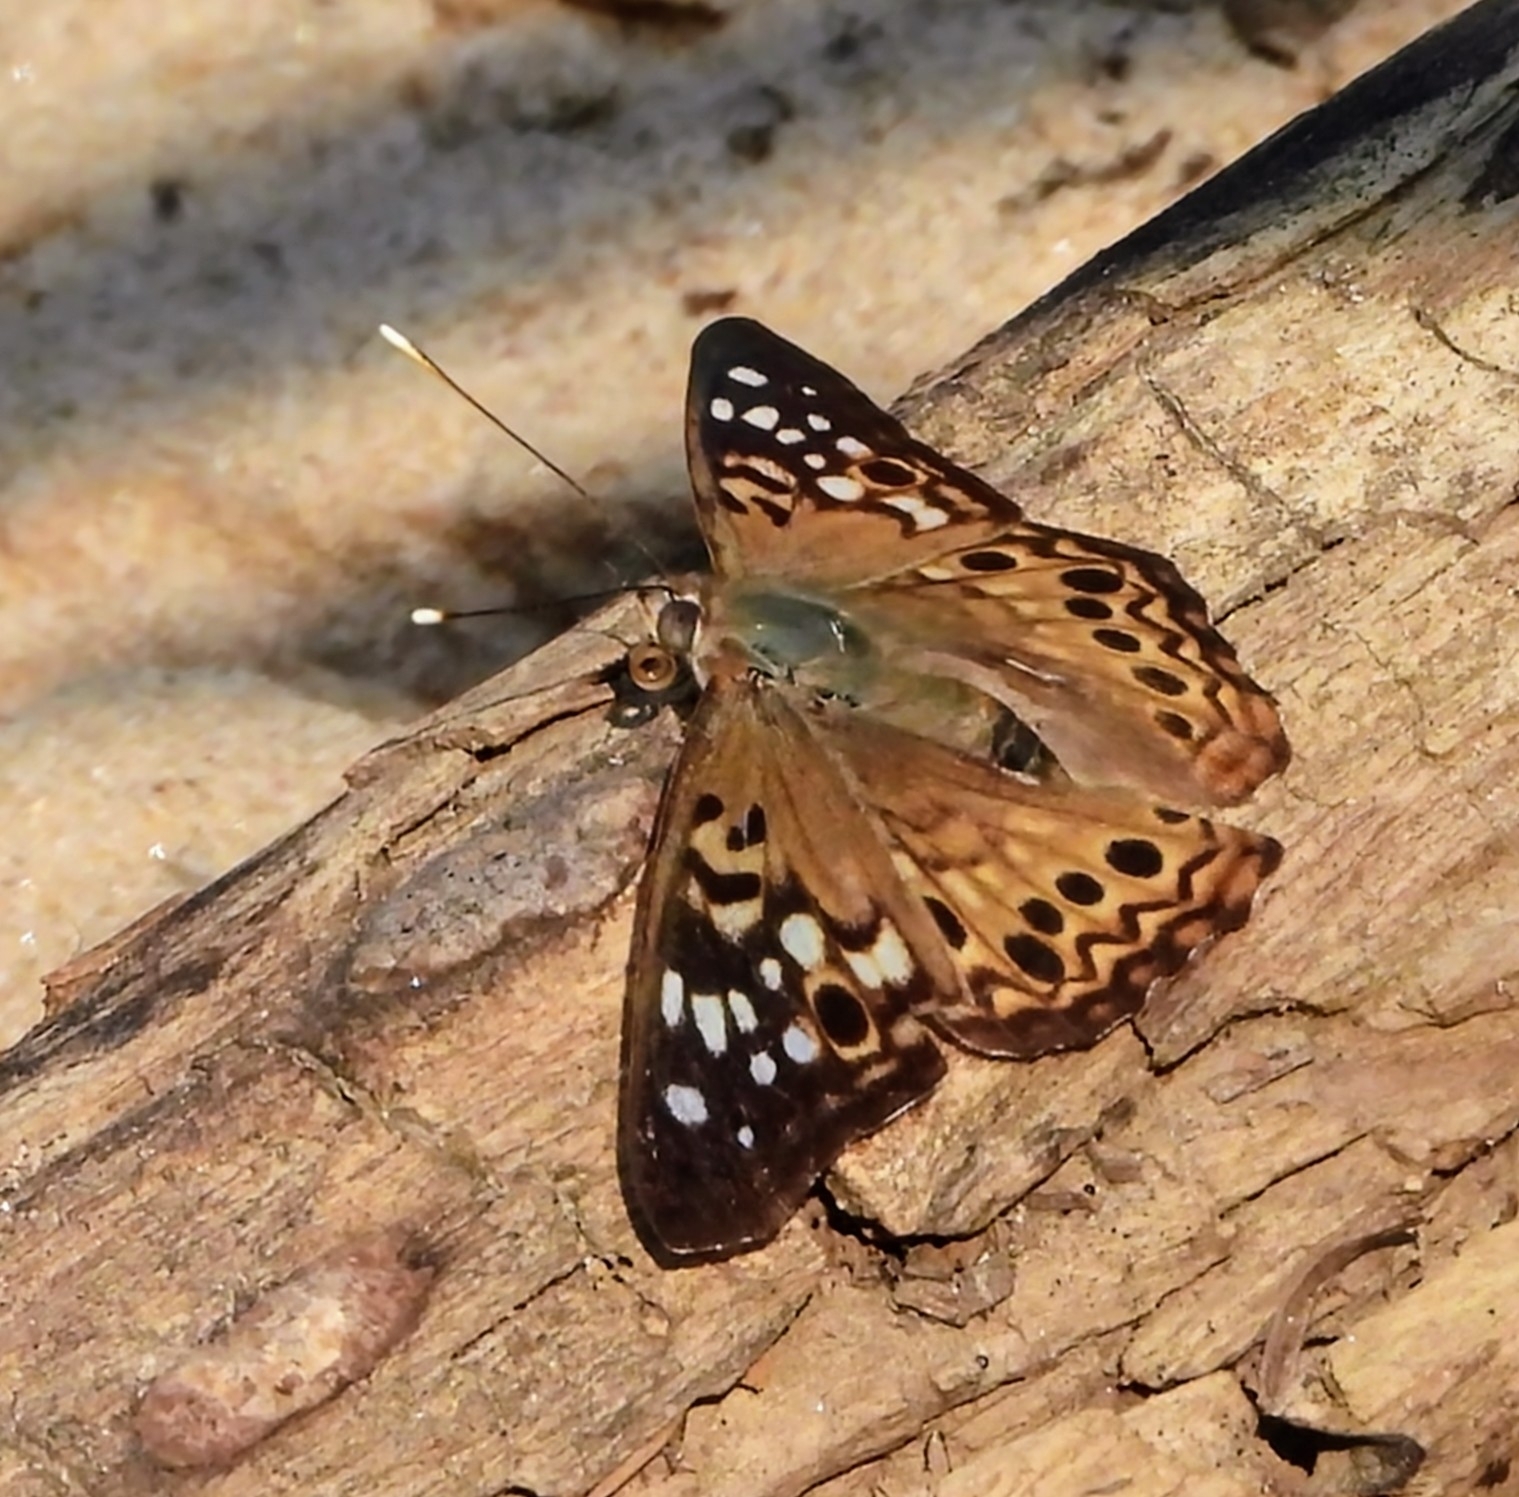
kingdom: Animalia
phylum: Arthropoda
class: Insecta
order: Lepidoptera
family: Nymphalidae
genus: Asterocampa
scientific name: Asterocampa celtis
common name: Hackberry emperor
